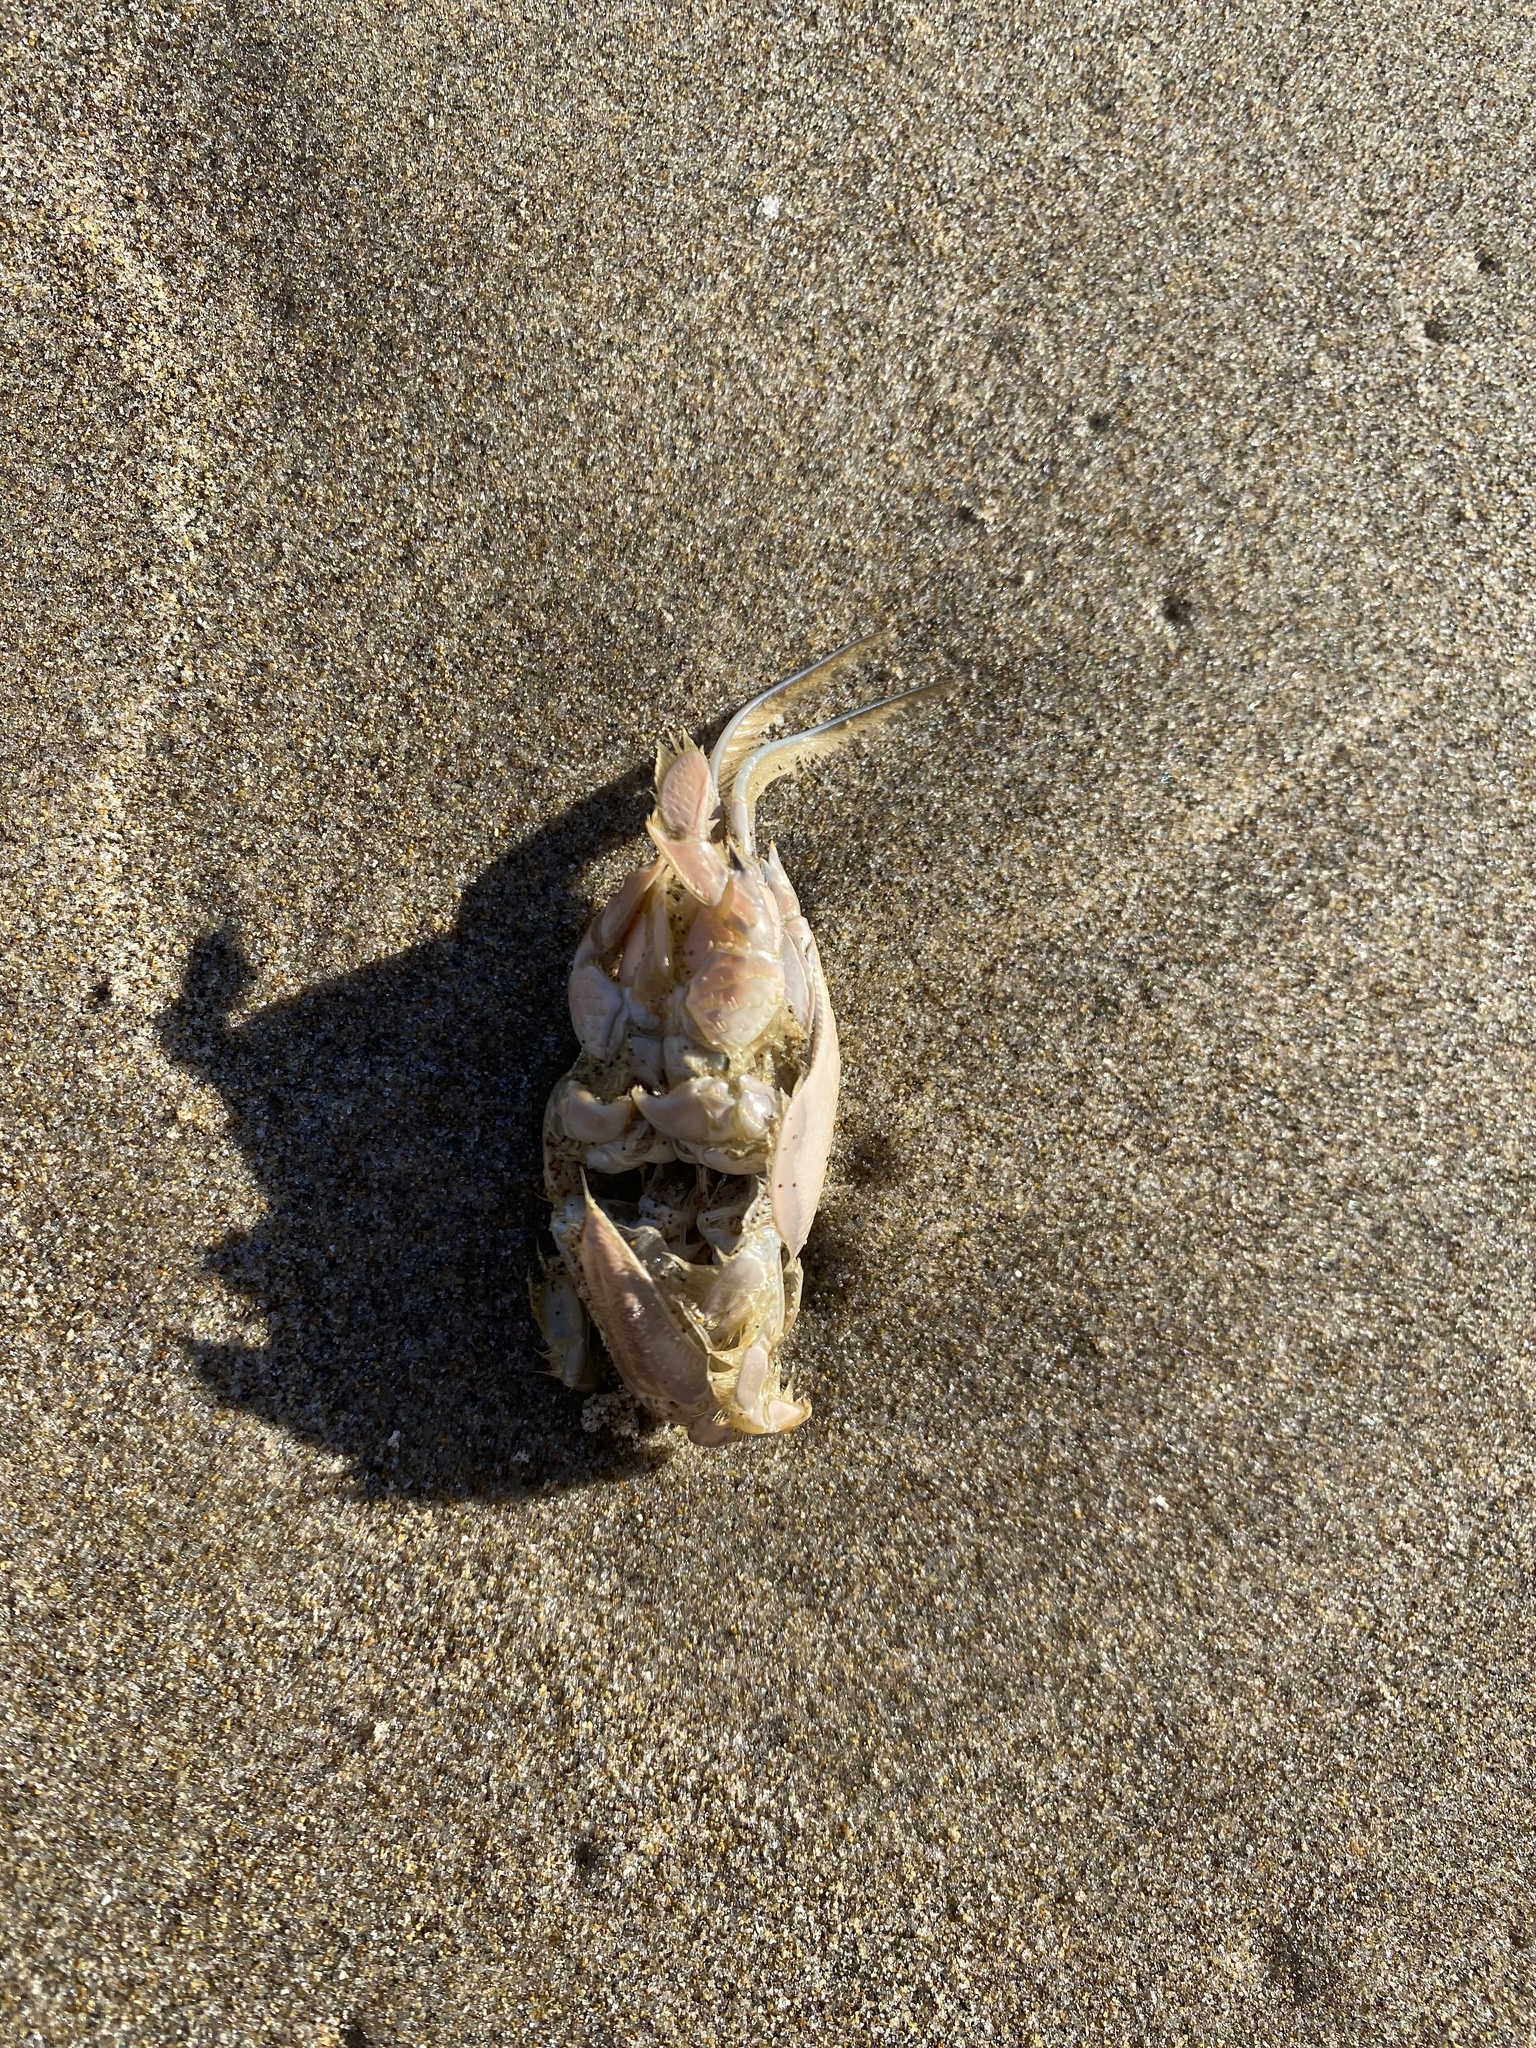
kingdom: Animalia
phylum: Arthropoda
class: Malacostraca
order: Decapoda
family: Hippidae
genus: Emerita
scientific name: Emerita analoga
